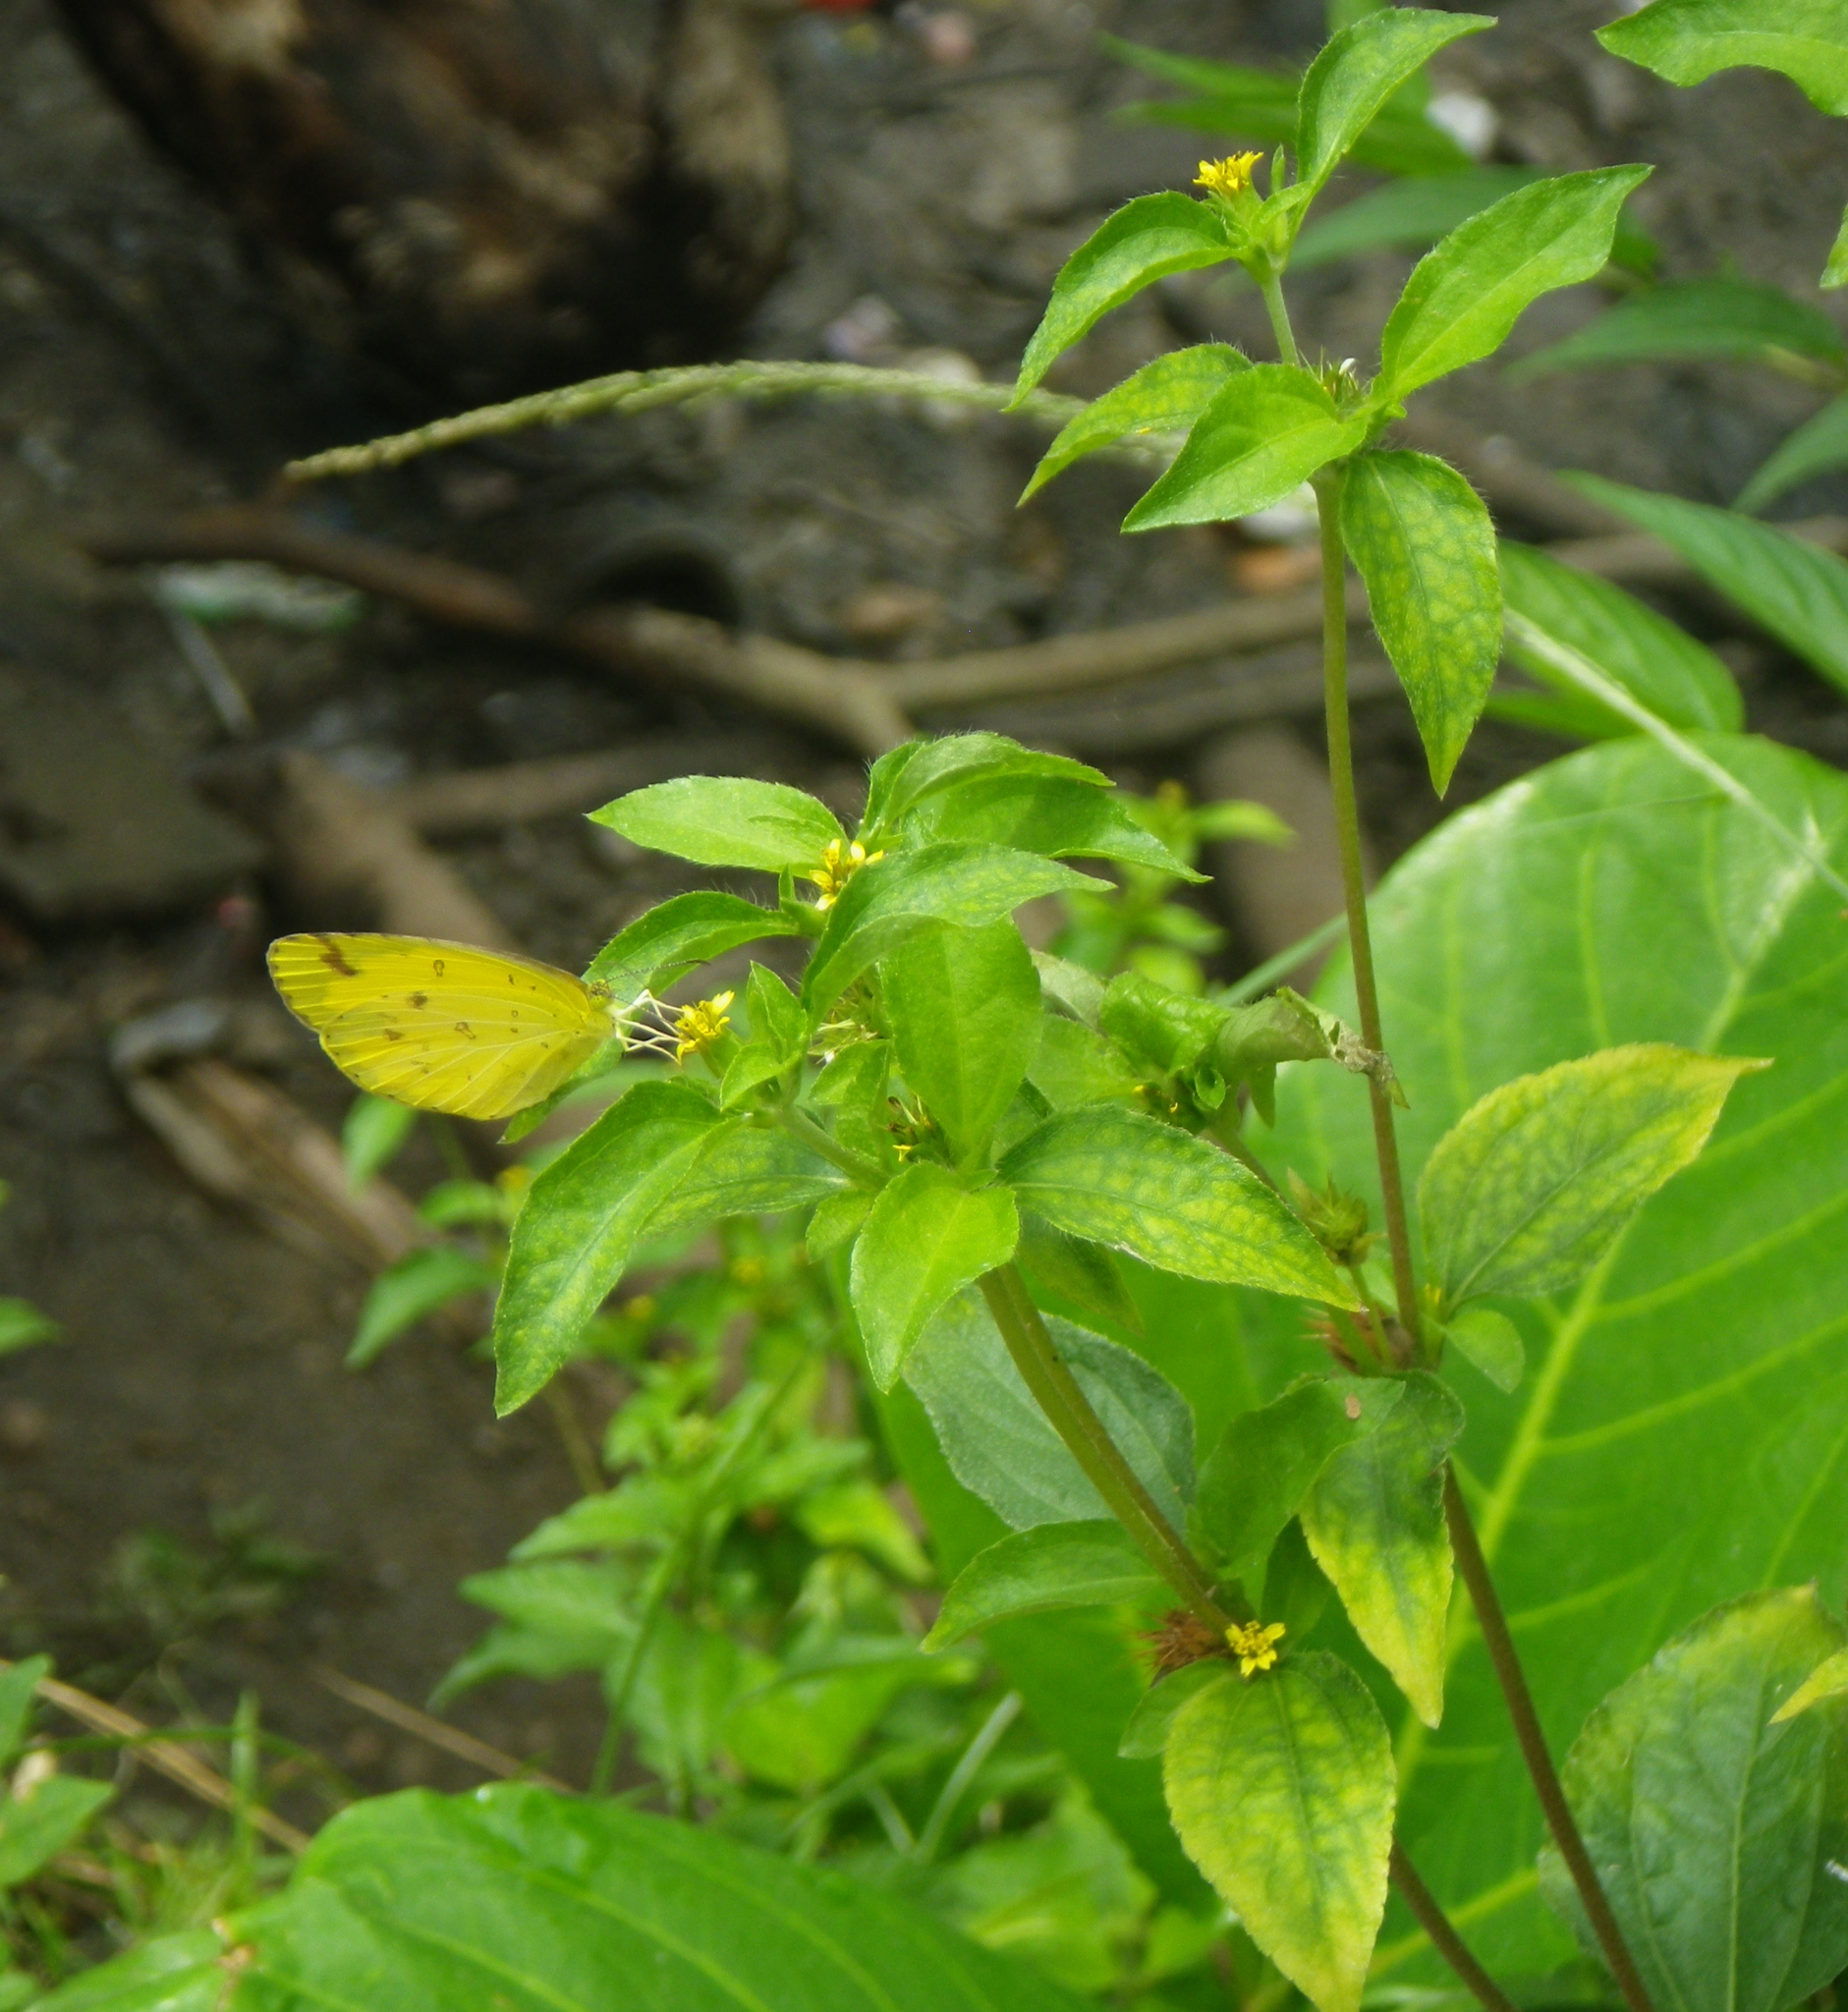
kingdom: Plantae
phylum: Tracheophyta
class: Magnoliopsida
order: Asterales
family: Asteraceae
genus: Synedrella
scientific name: Synedrella nodiflora
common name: Nodeweed
